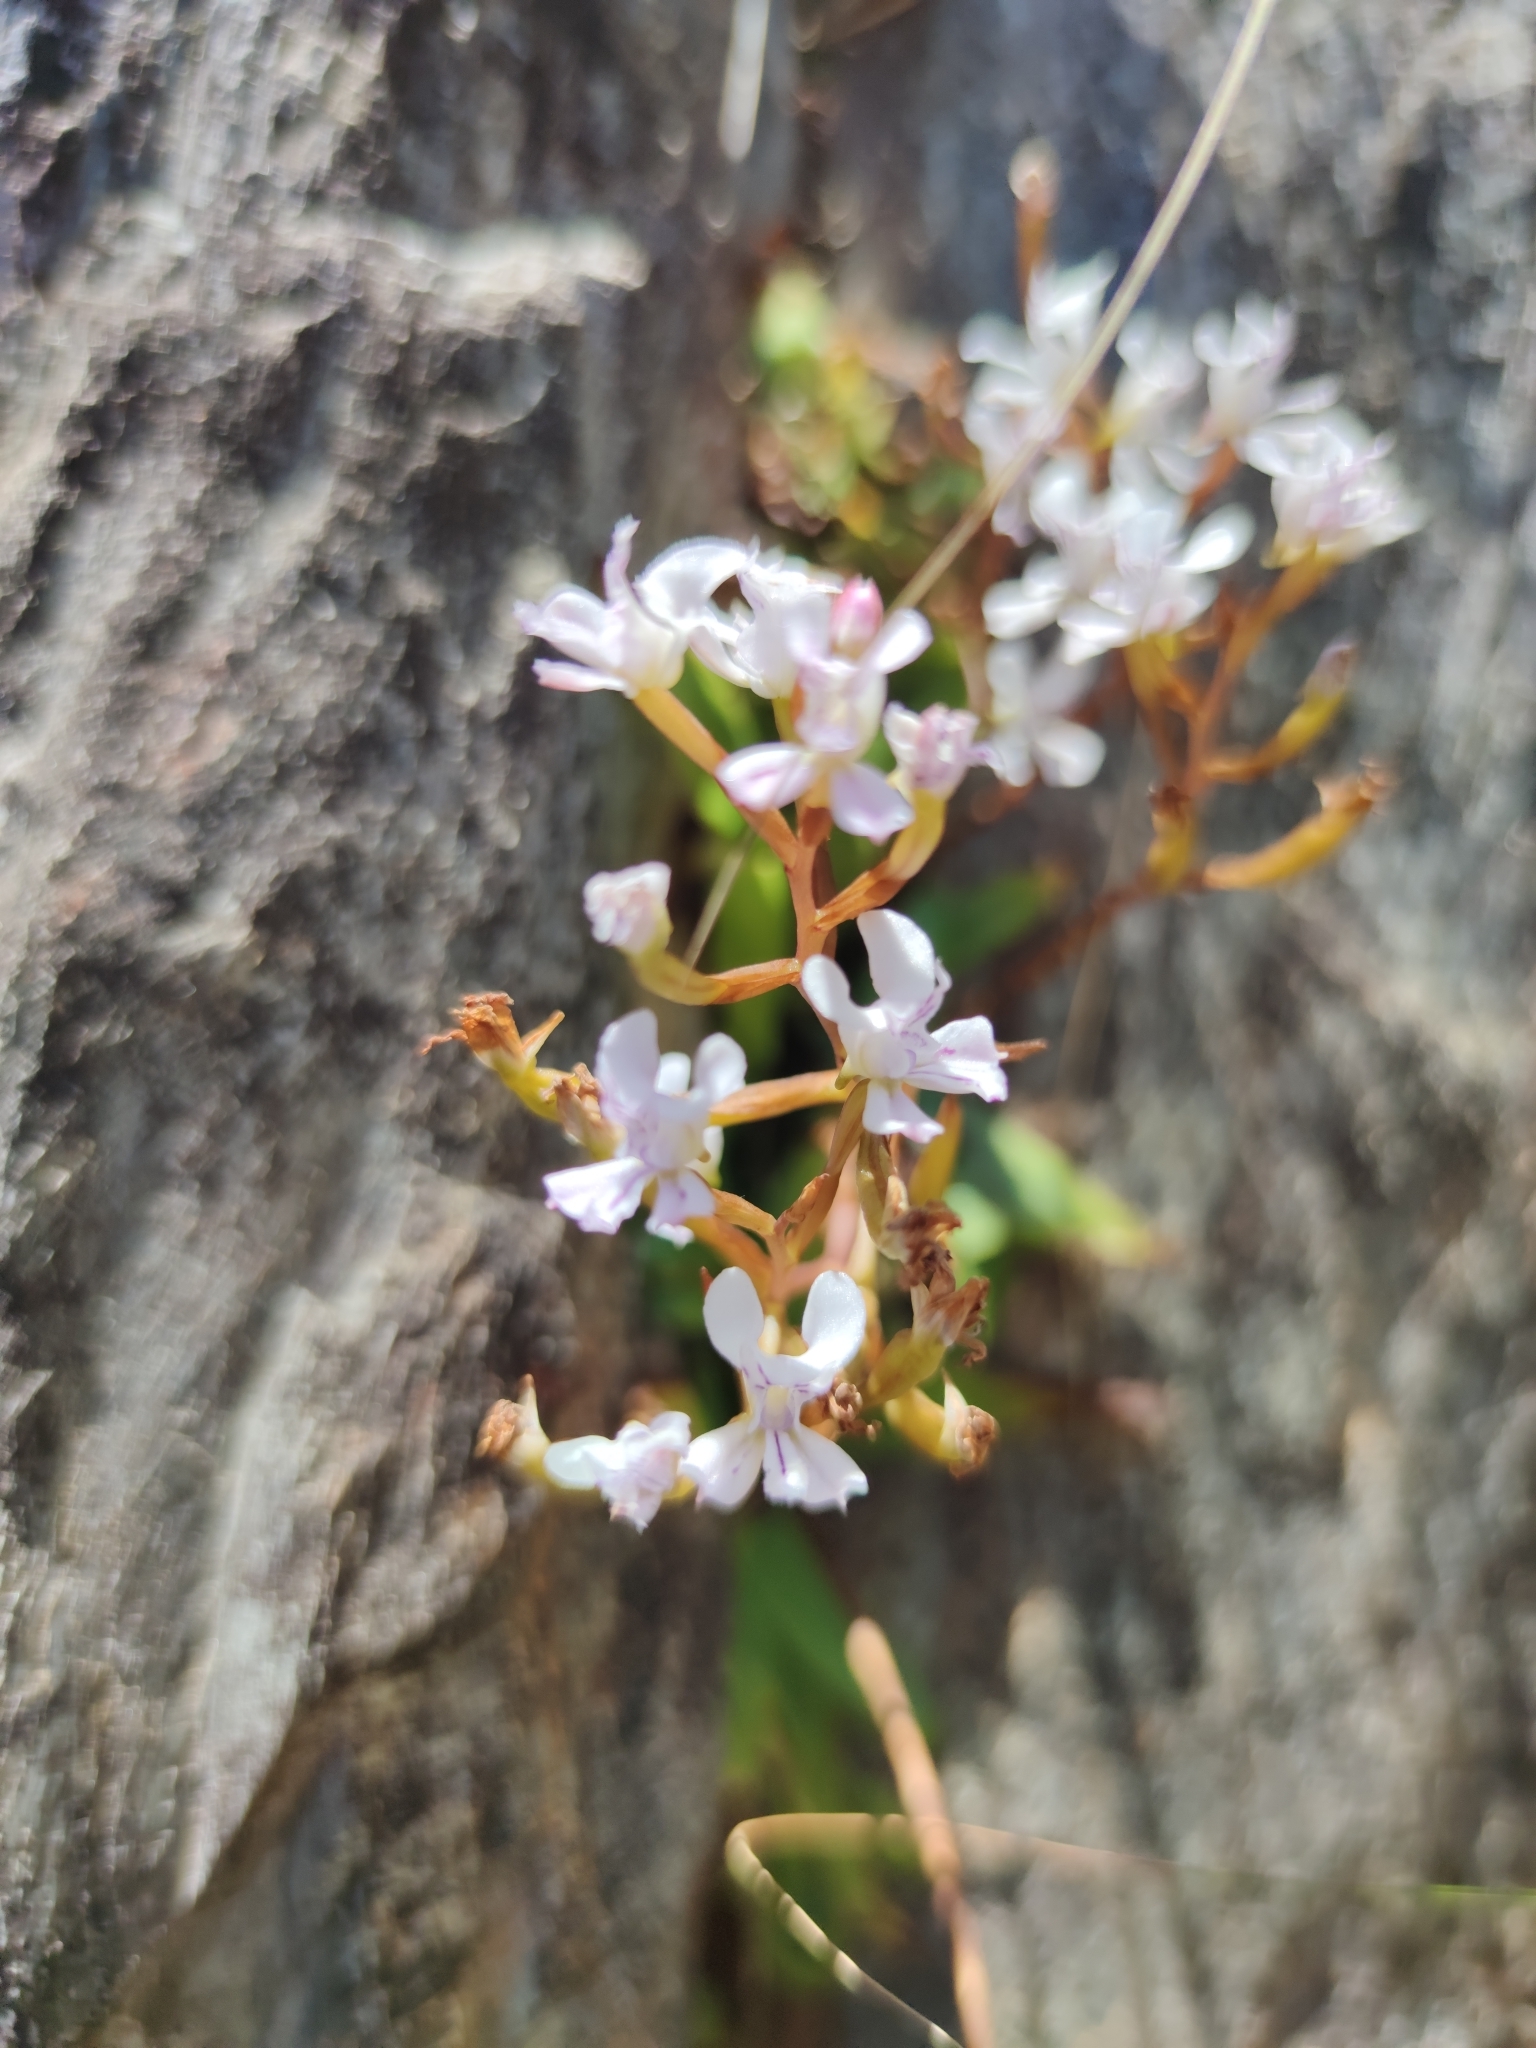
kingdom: Plantae
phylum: Tracheophyta
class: Liliopsida
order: Asparagales
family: Orchidaceae
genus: Disa
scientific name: Disa sagittalis
